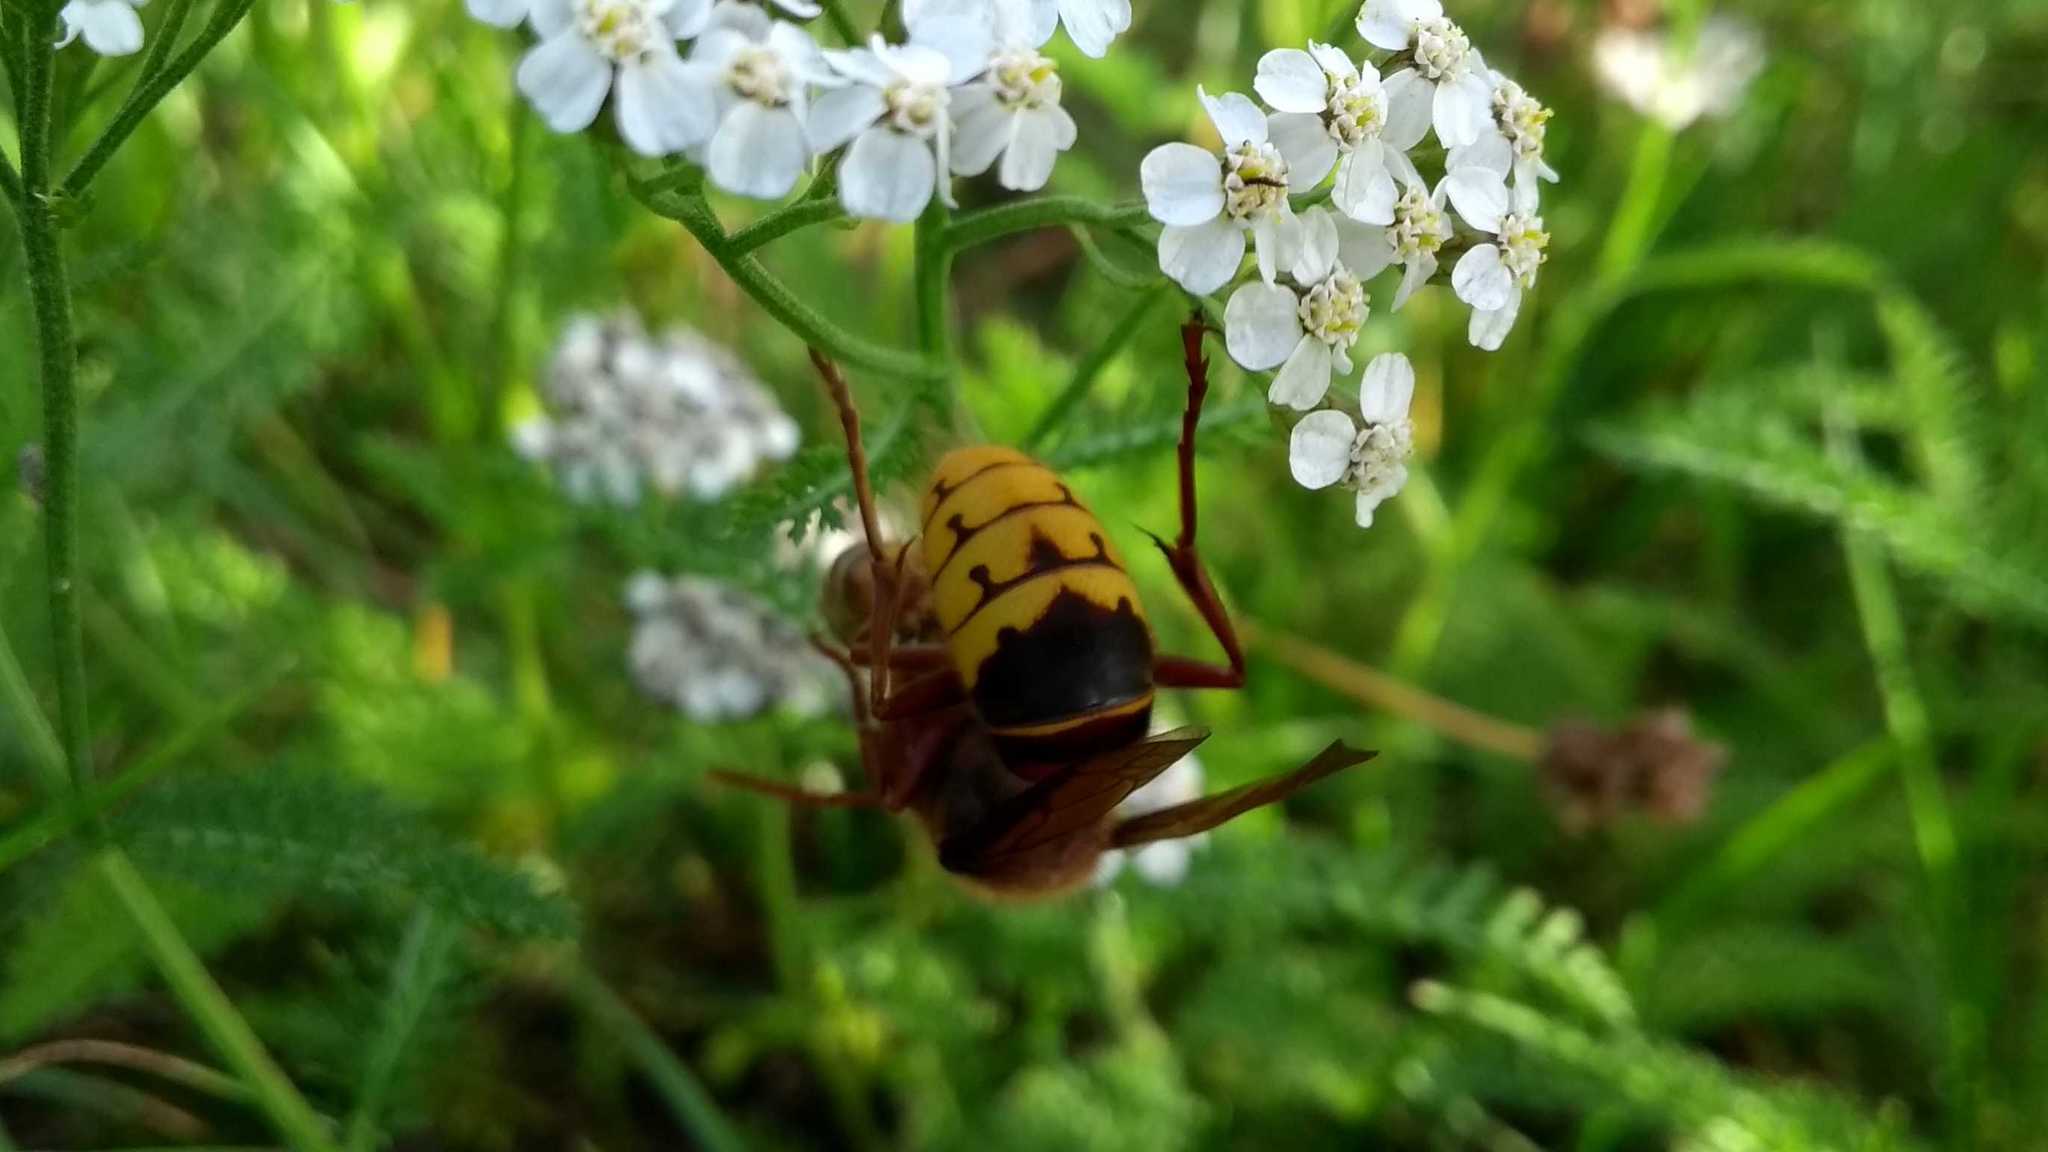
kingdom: Animalia
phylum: Arthropoda
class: Insecta
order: Hymenoptera
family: Vespidae
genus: Vespa
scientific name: Vespa crabro
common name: Hornet
